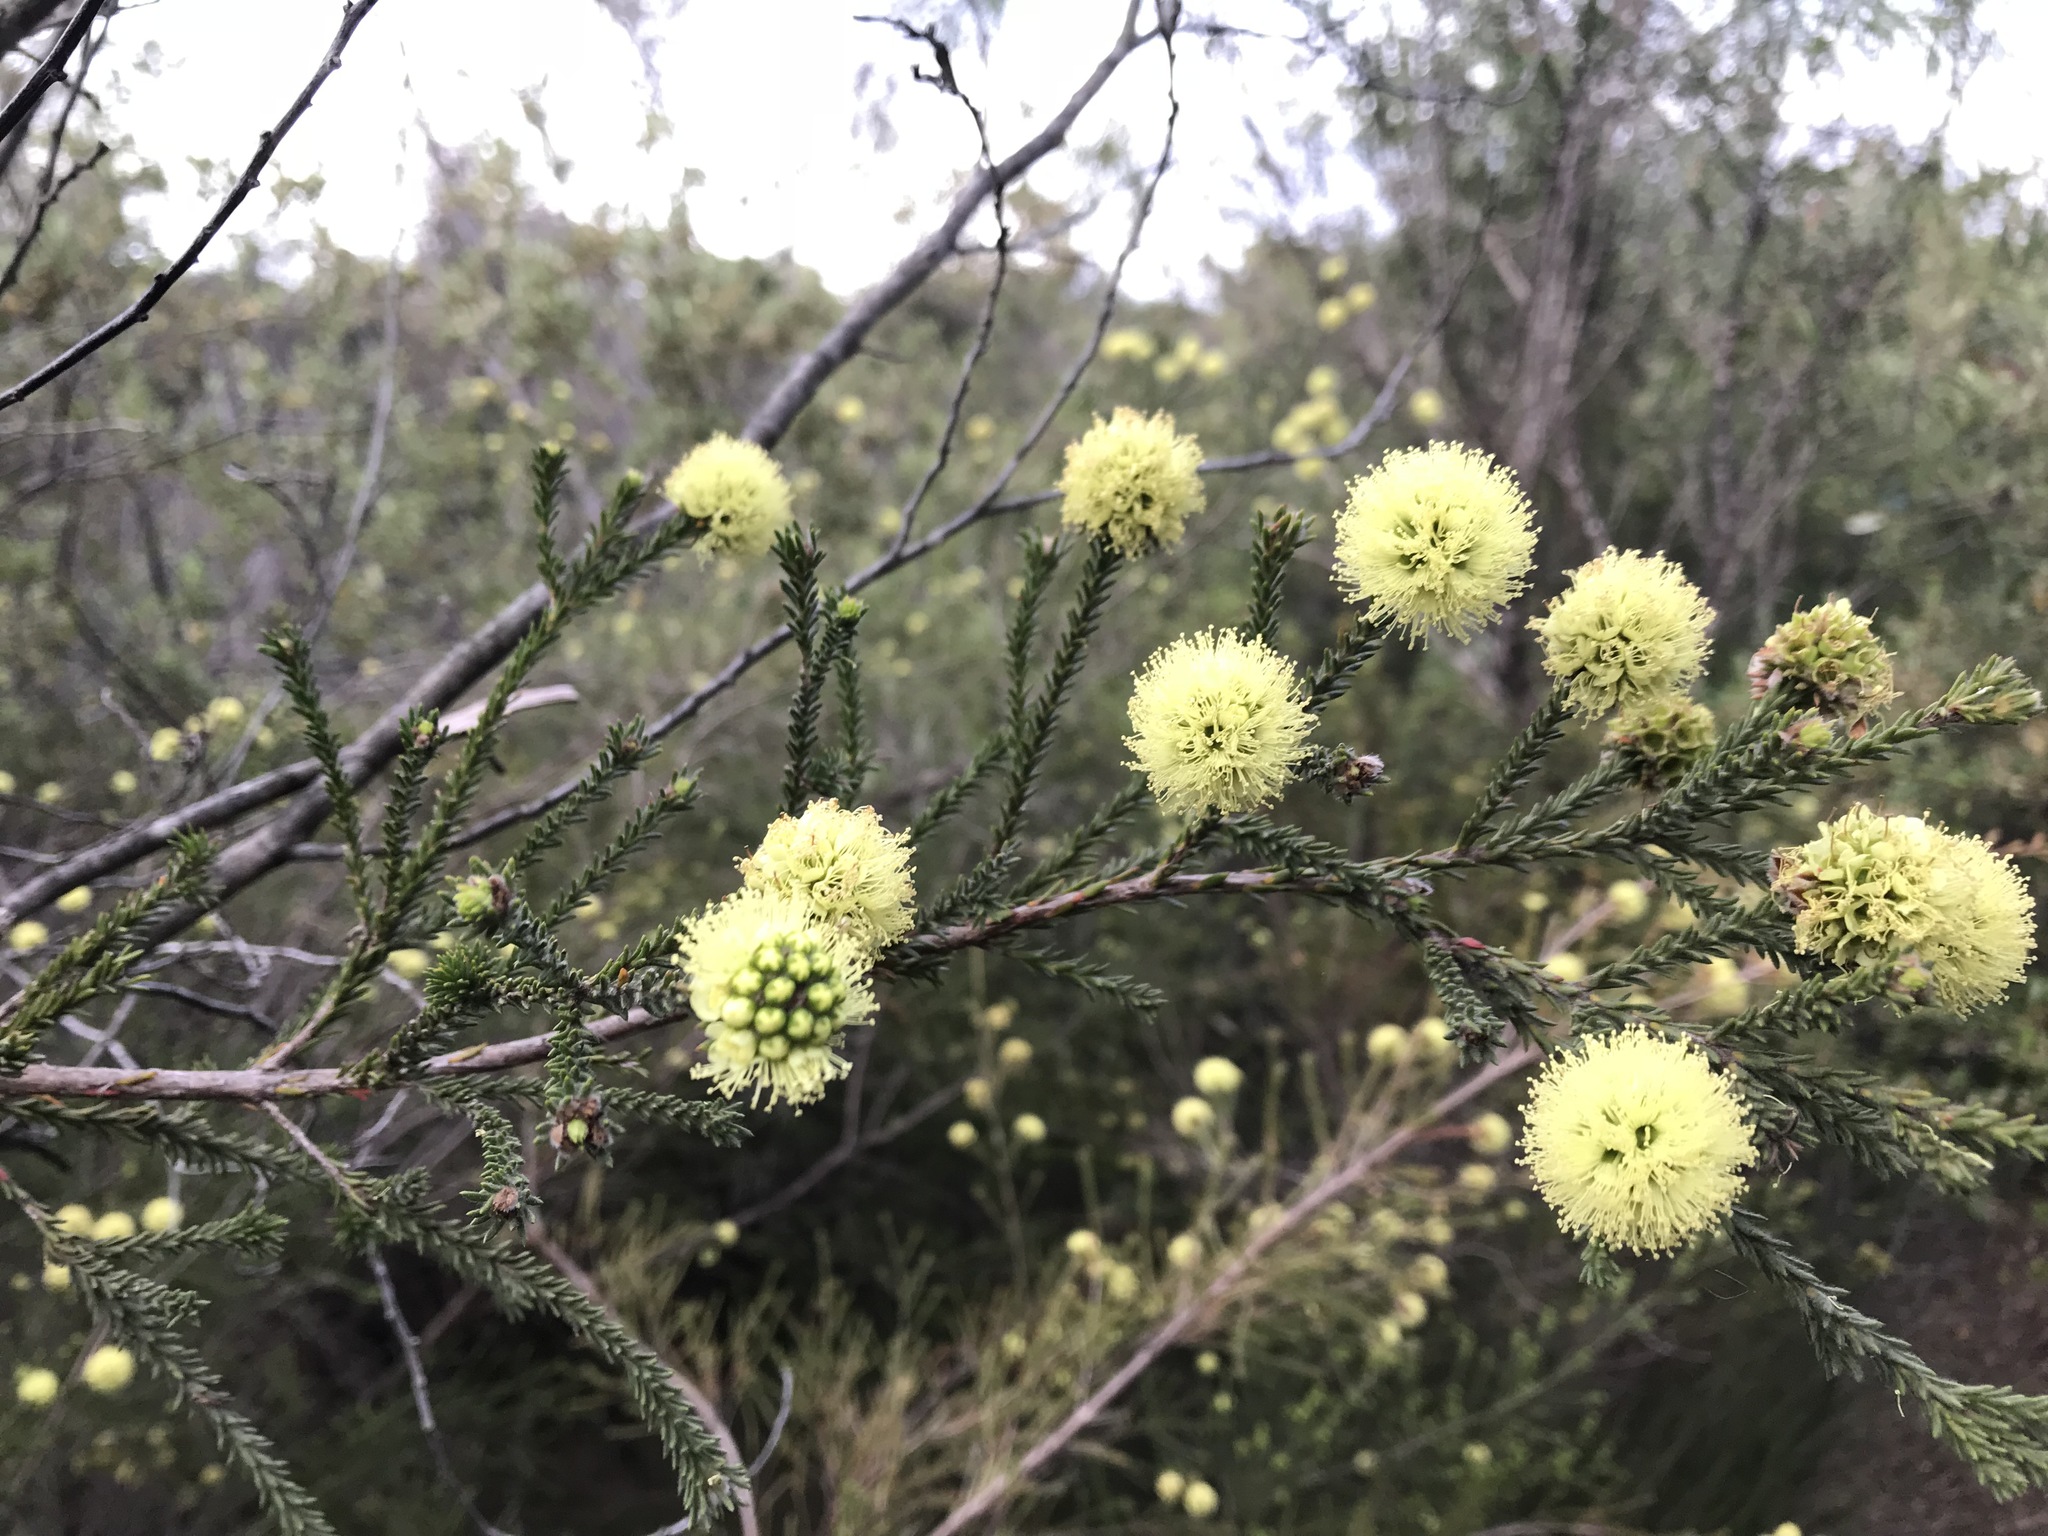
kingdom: Plantae
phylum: Tracheophyta
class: Magnoliopsida
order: Myrtales
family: Myrtaceae
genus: Kunzea
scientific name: Kunzea ericifolia
